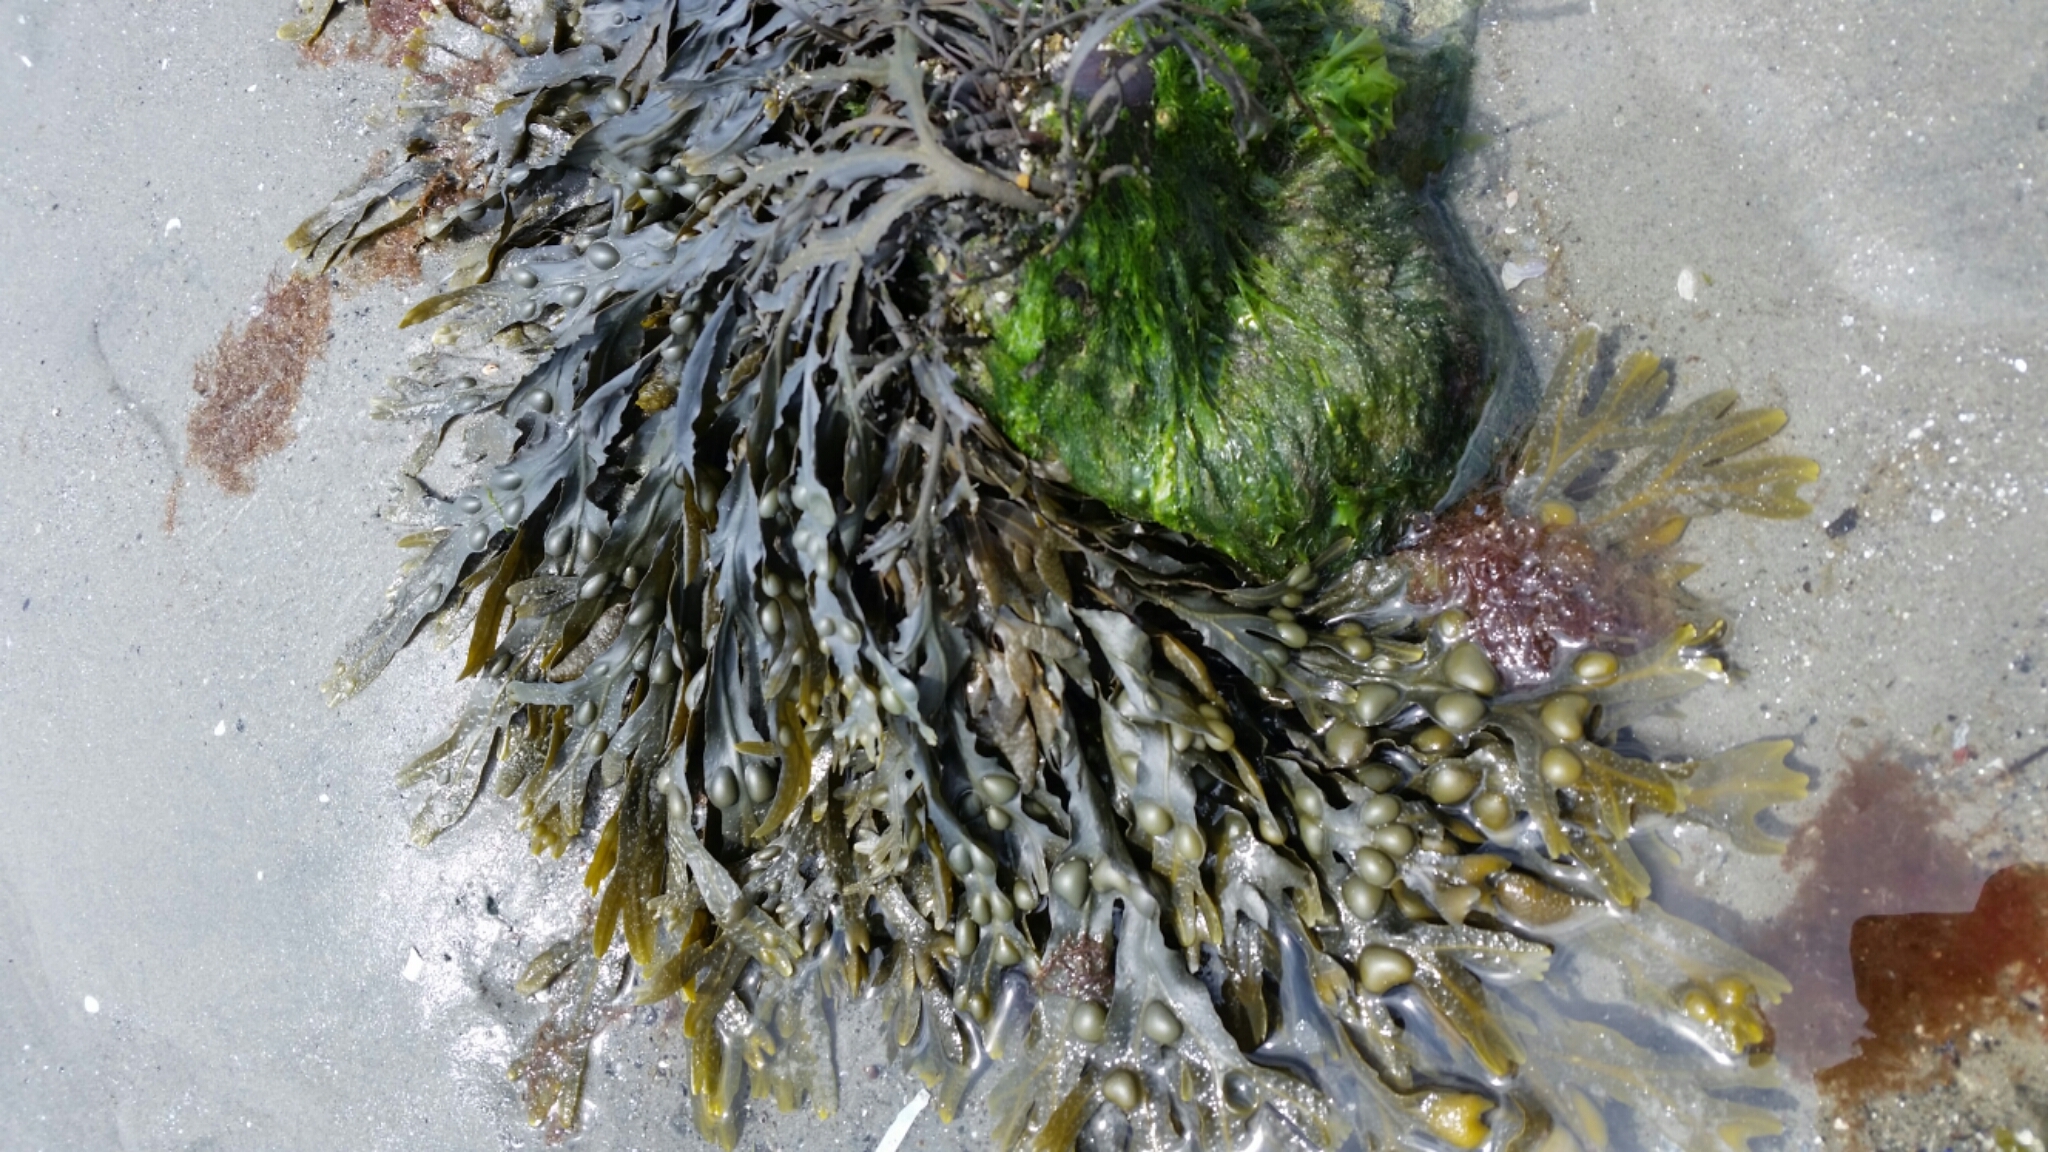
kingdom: Chromista
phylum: Ochrophyta
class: Phaeophyceae
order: Fucales
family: Fucaceae
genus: Fucus
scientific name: Fucus vesiculosus
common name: Bladder wrack
